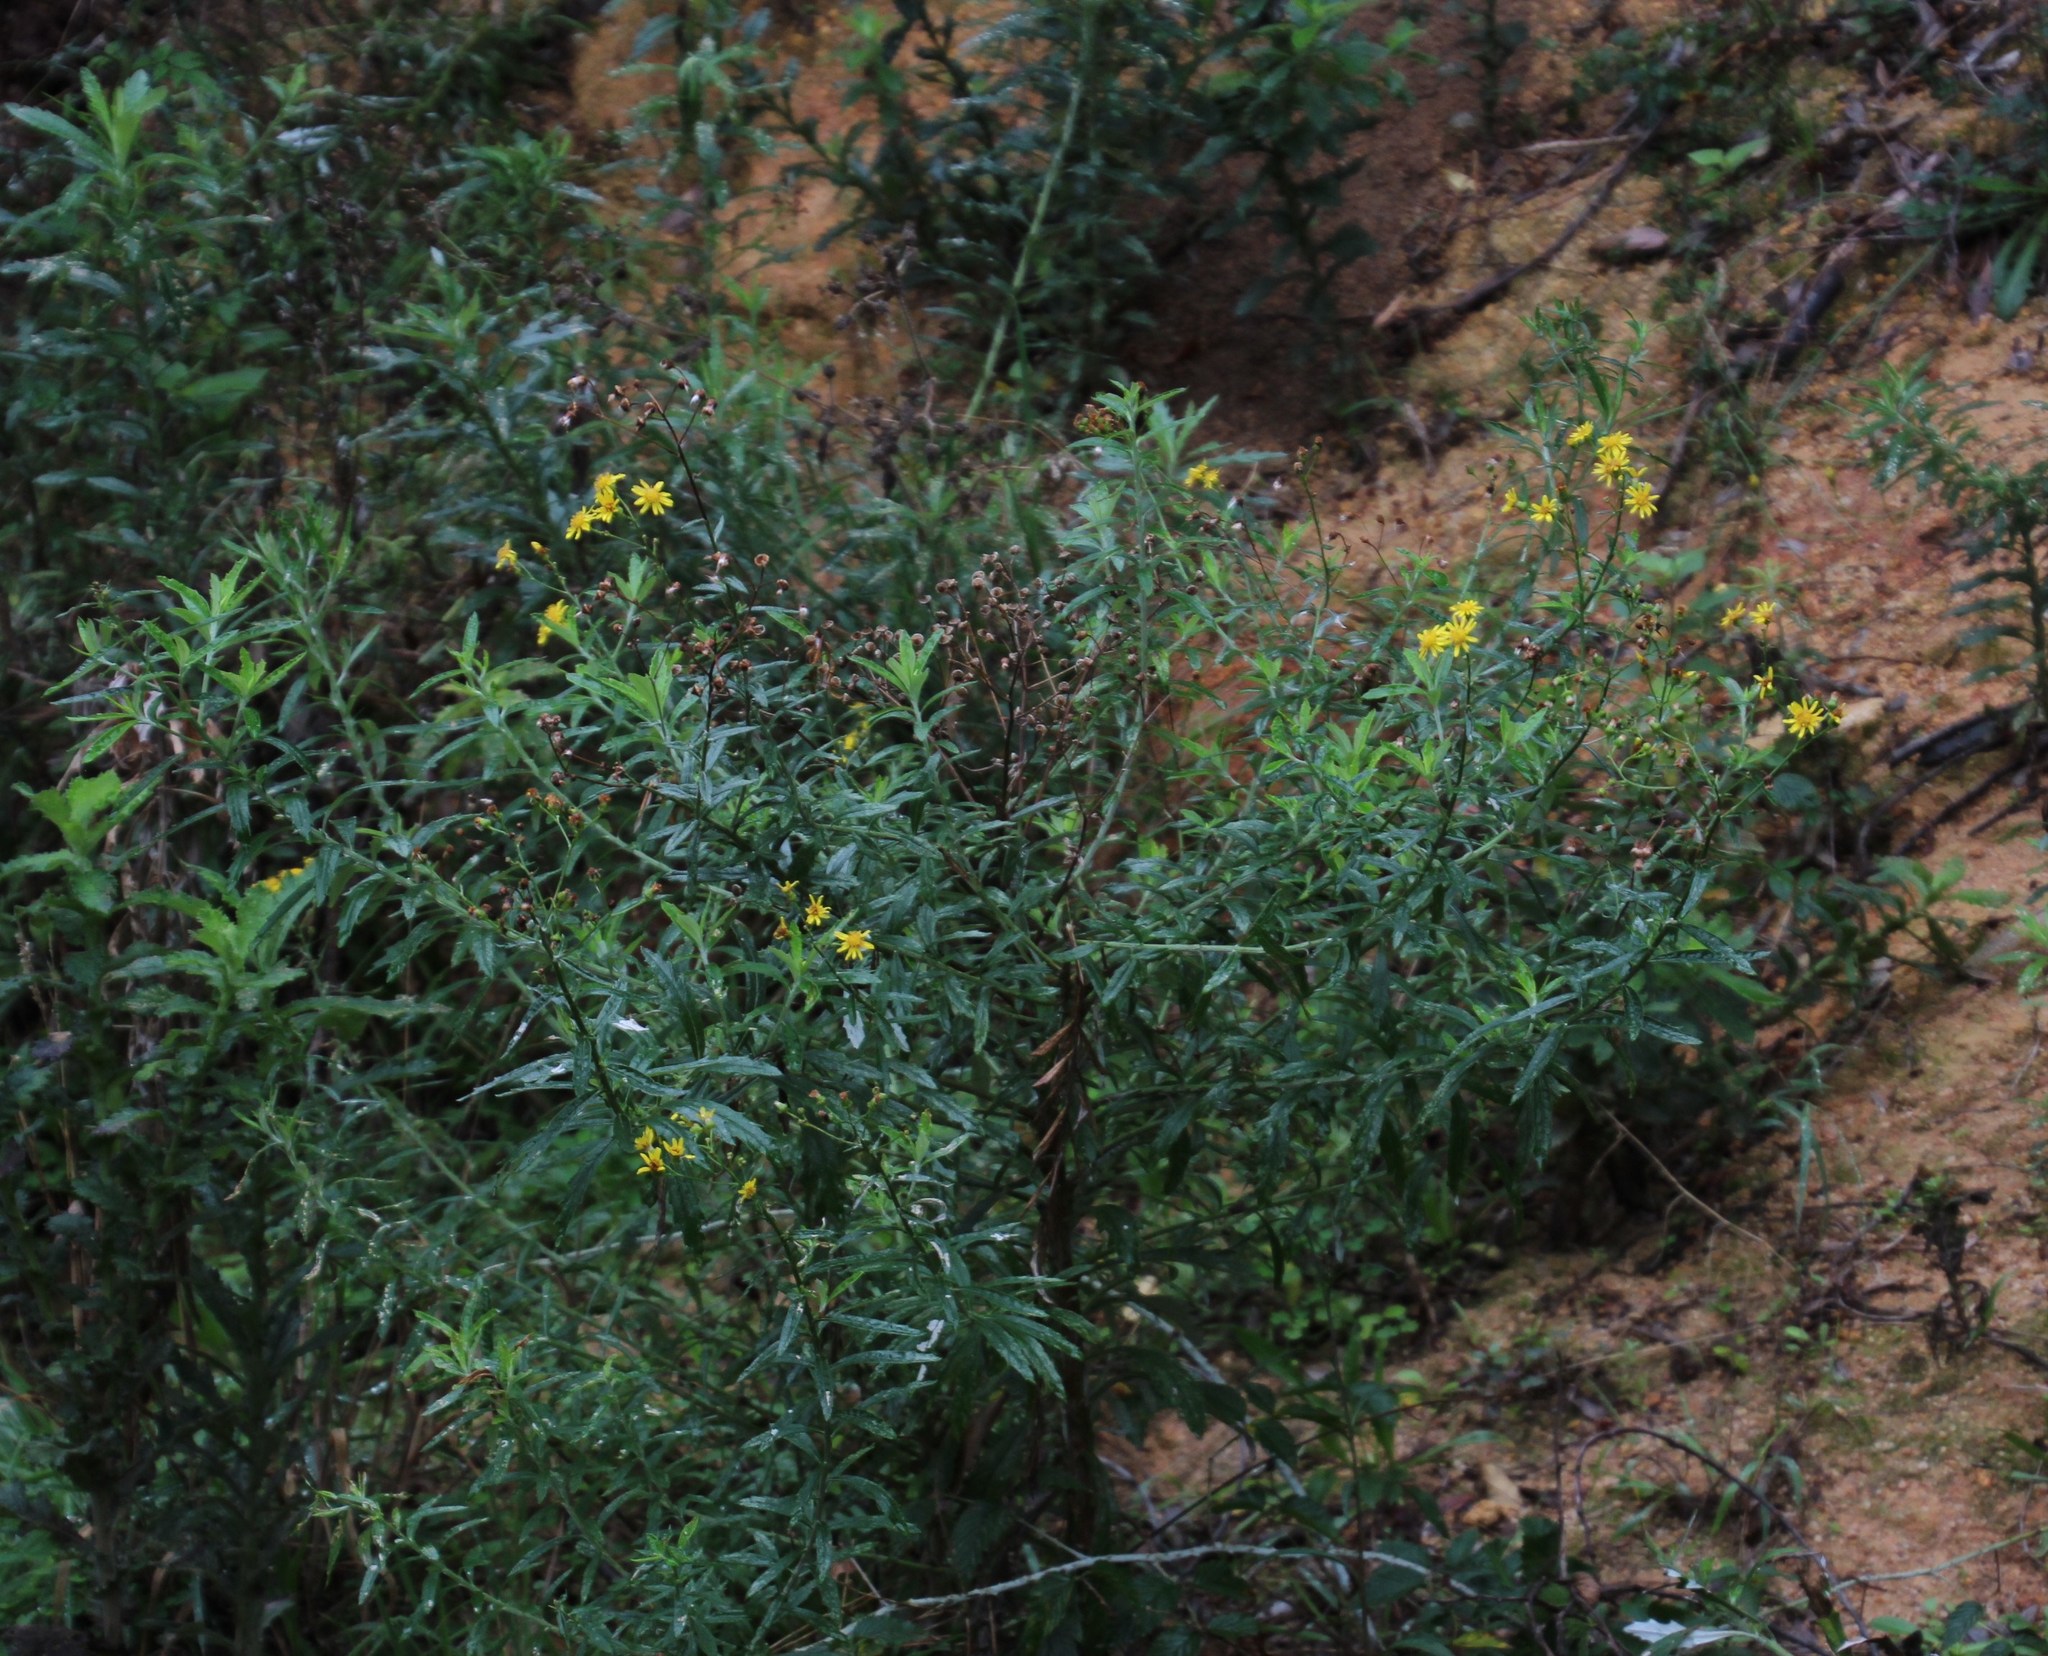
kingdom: Plantae
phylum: Tracheophyta
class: Magnoliopsida
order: Asterales
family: Asteraceae
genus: Senecio
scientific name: Senecio pterophorus
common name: Shoddy ragwort
